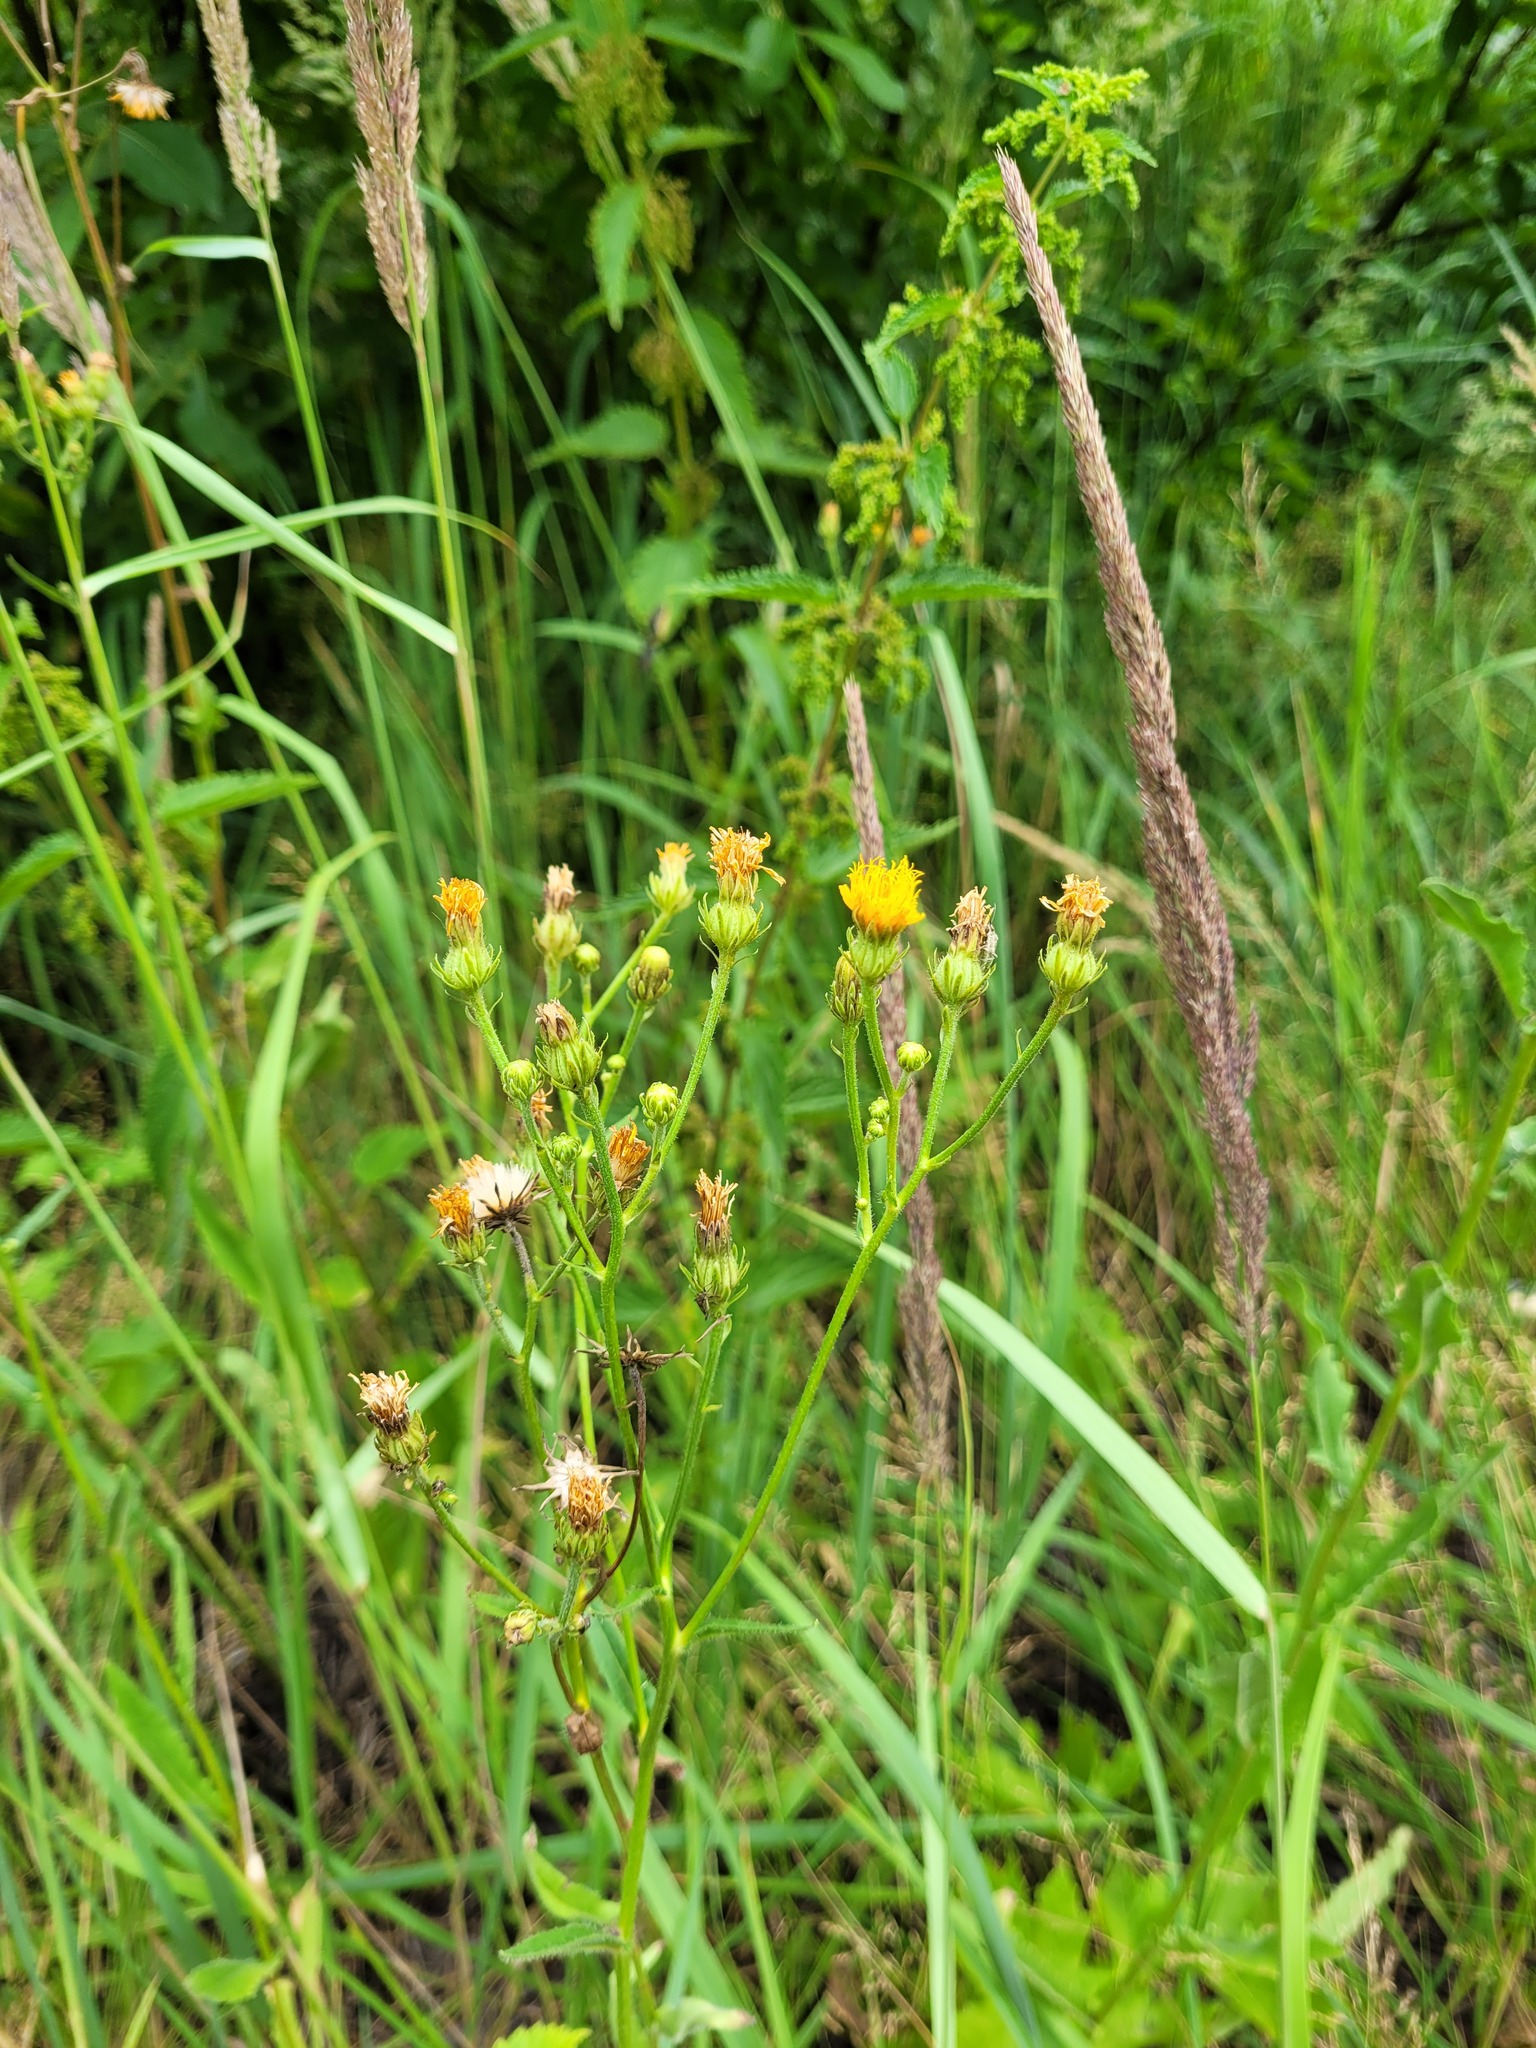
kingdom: Plantae
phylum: Tracheophyta
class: Magnoliopsida
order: Asterales
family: Asteraceae
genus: Picris
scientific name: Picris hieracioides
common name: Hawkweed oxtongue
